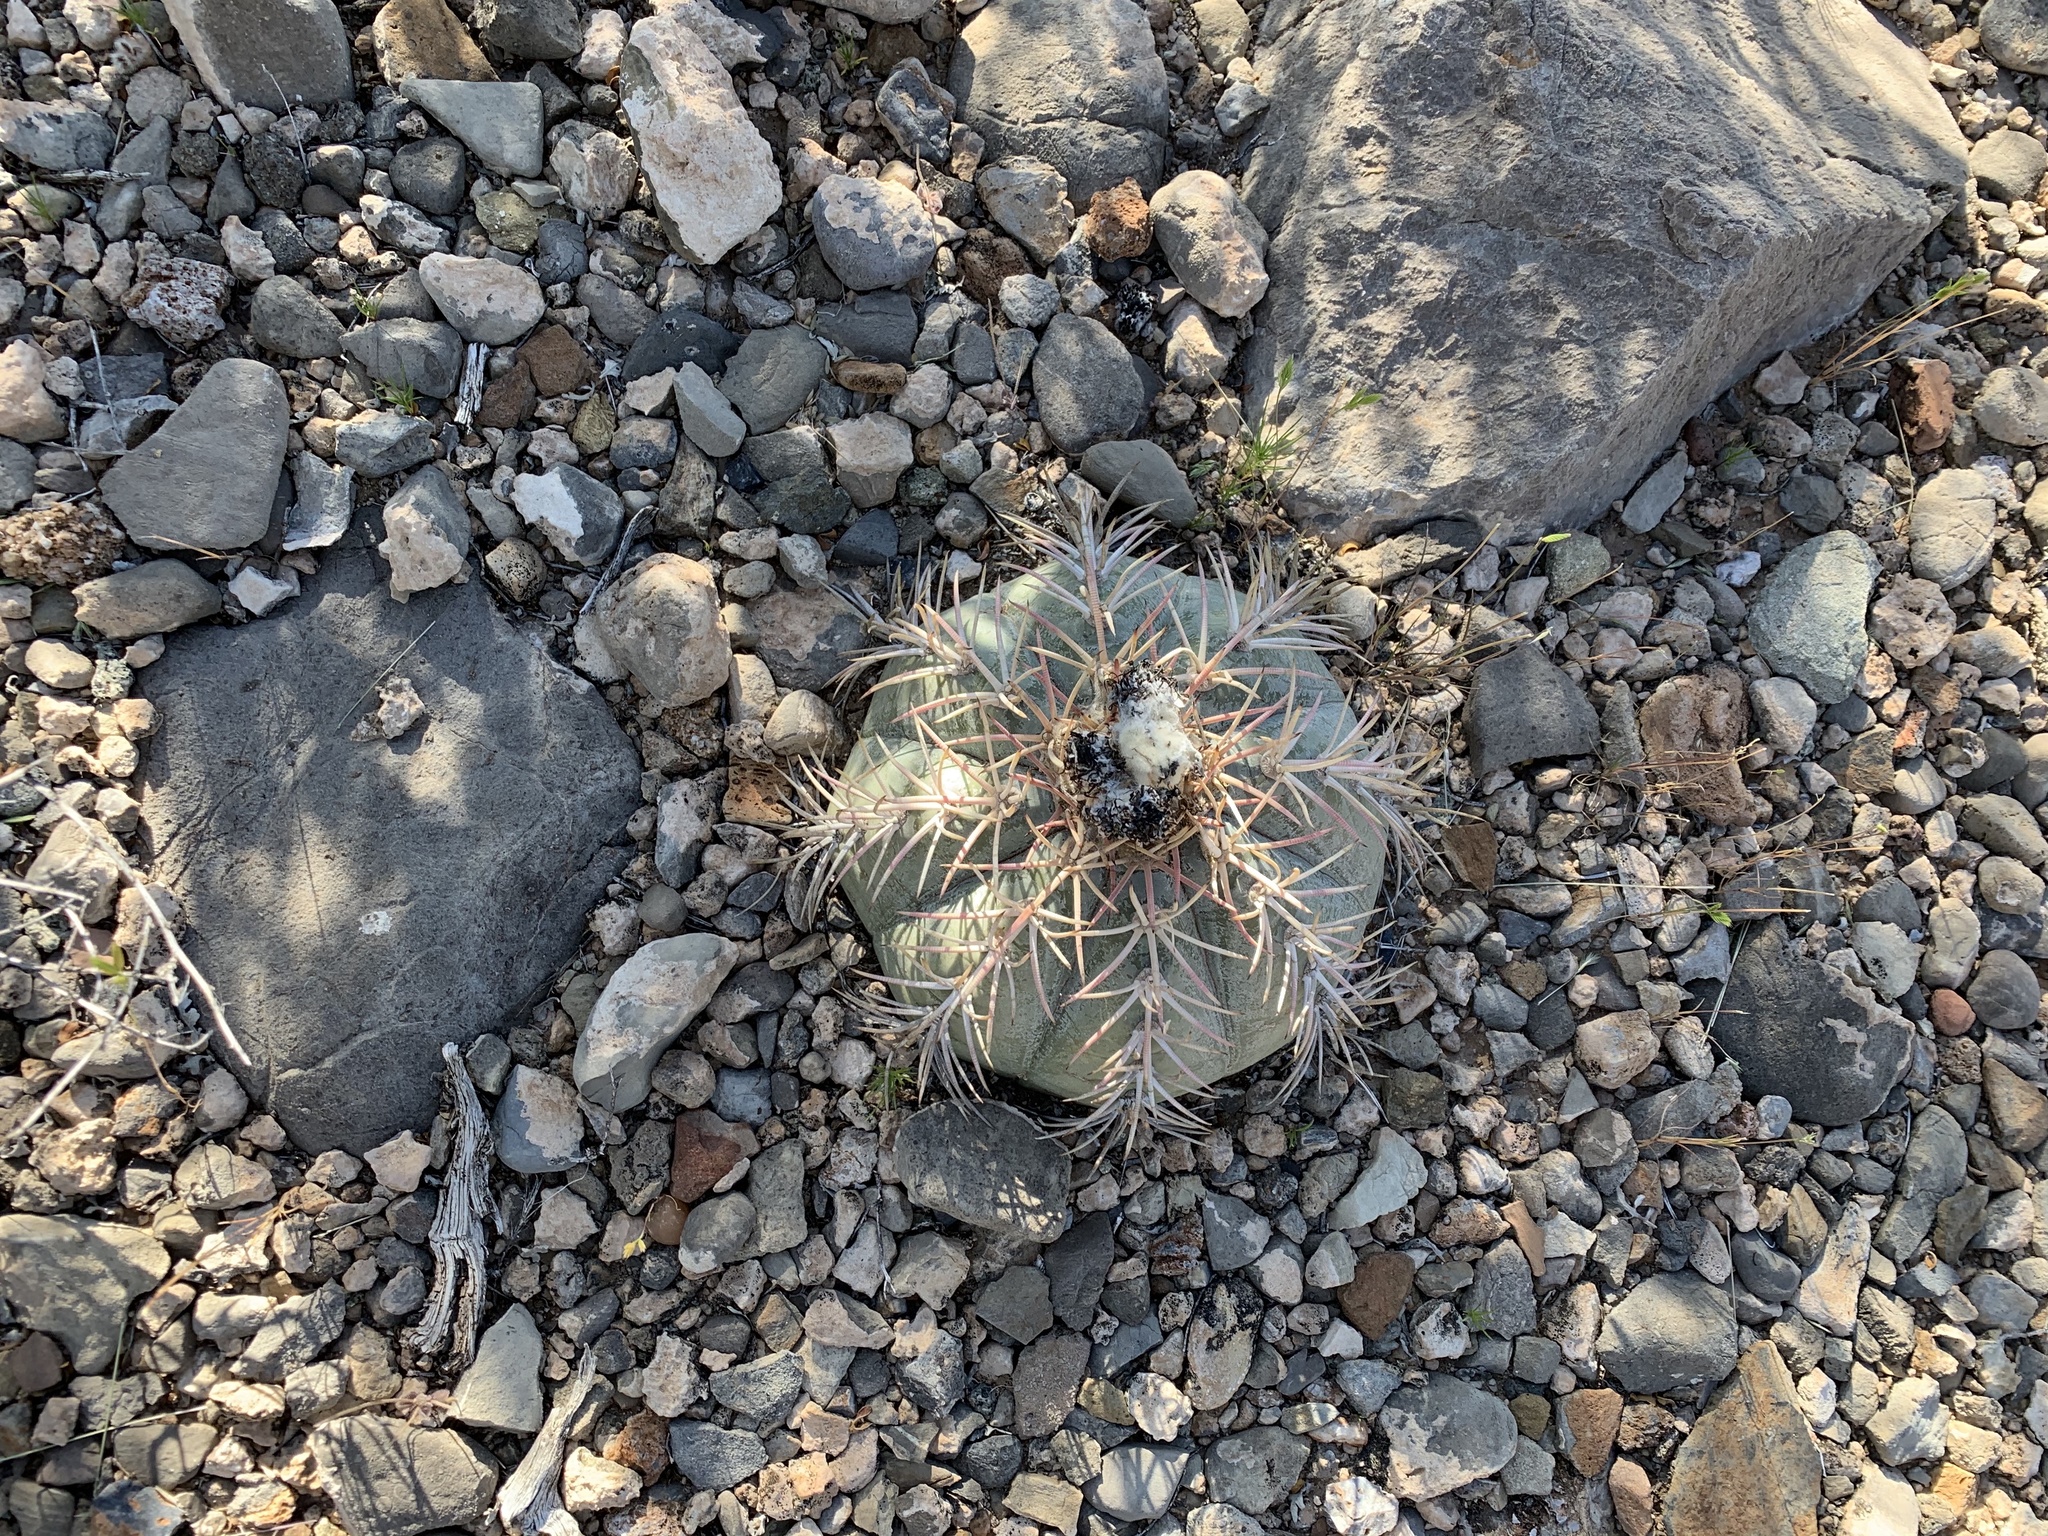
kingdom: Plantae
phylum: Tracheophyta
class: Magnoliopsida
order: Caryophyllales
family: Cactaceae
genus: Echinocactus
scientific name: Echinocactus horizonthalonius
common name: Devilshead
